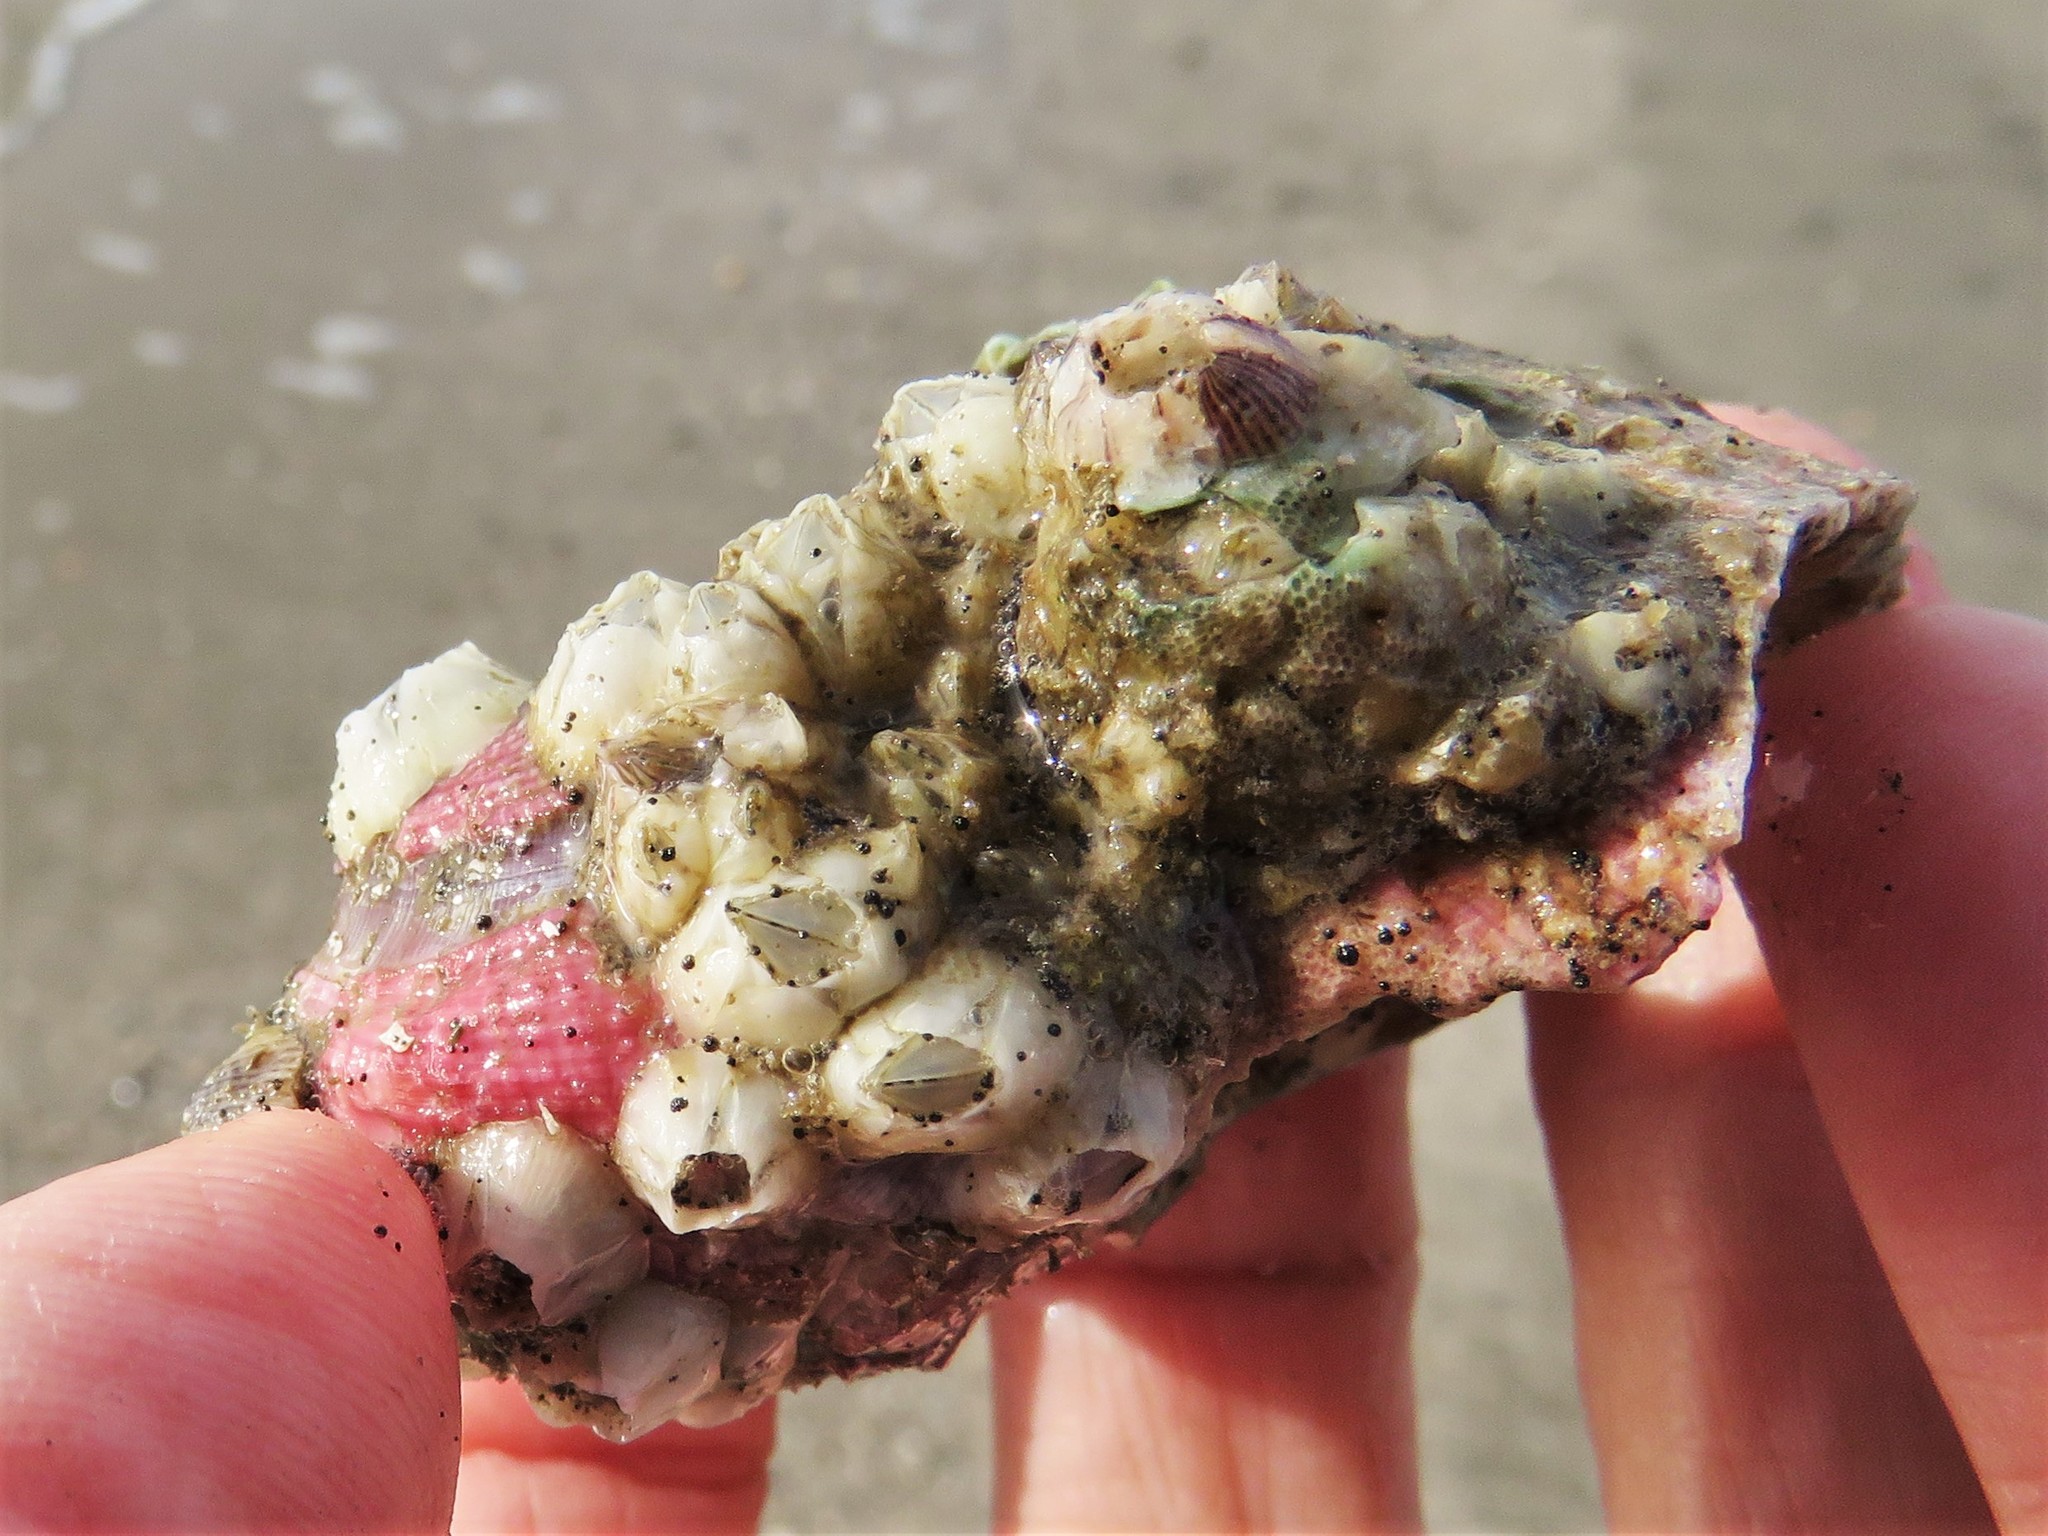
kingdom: Animalia
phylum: Arthropoda
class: Maxillopoda
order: Sessilia
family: Balanidae
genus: Amphibalanus
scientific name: Amphibalanus improvisus
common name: Bay barnacle
